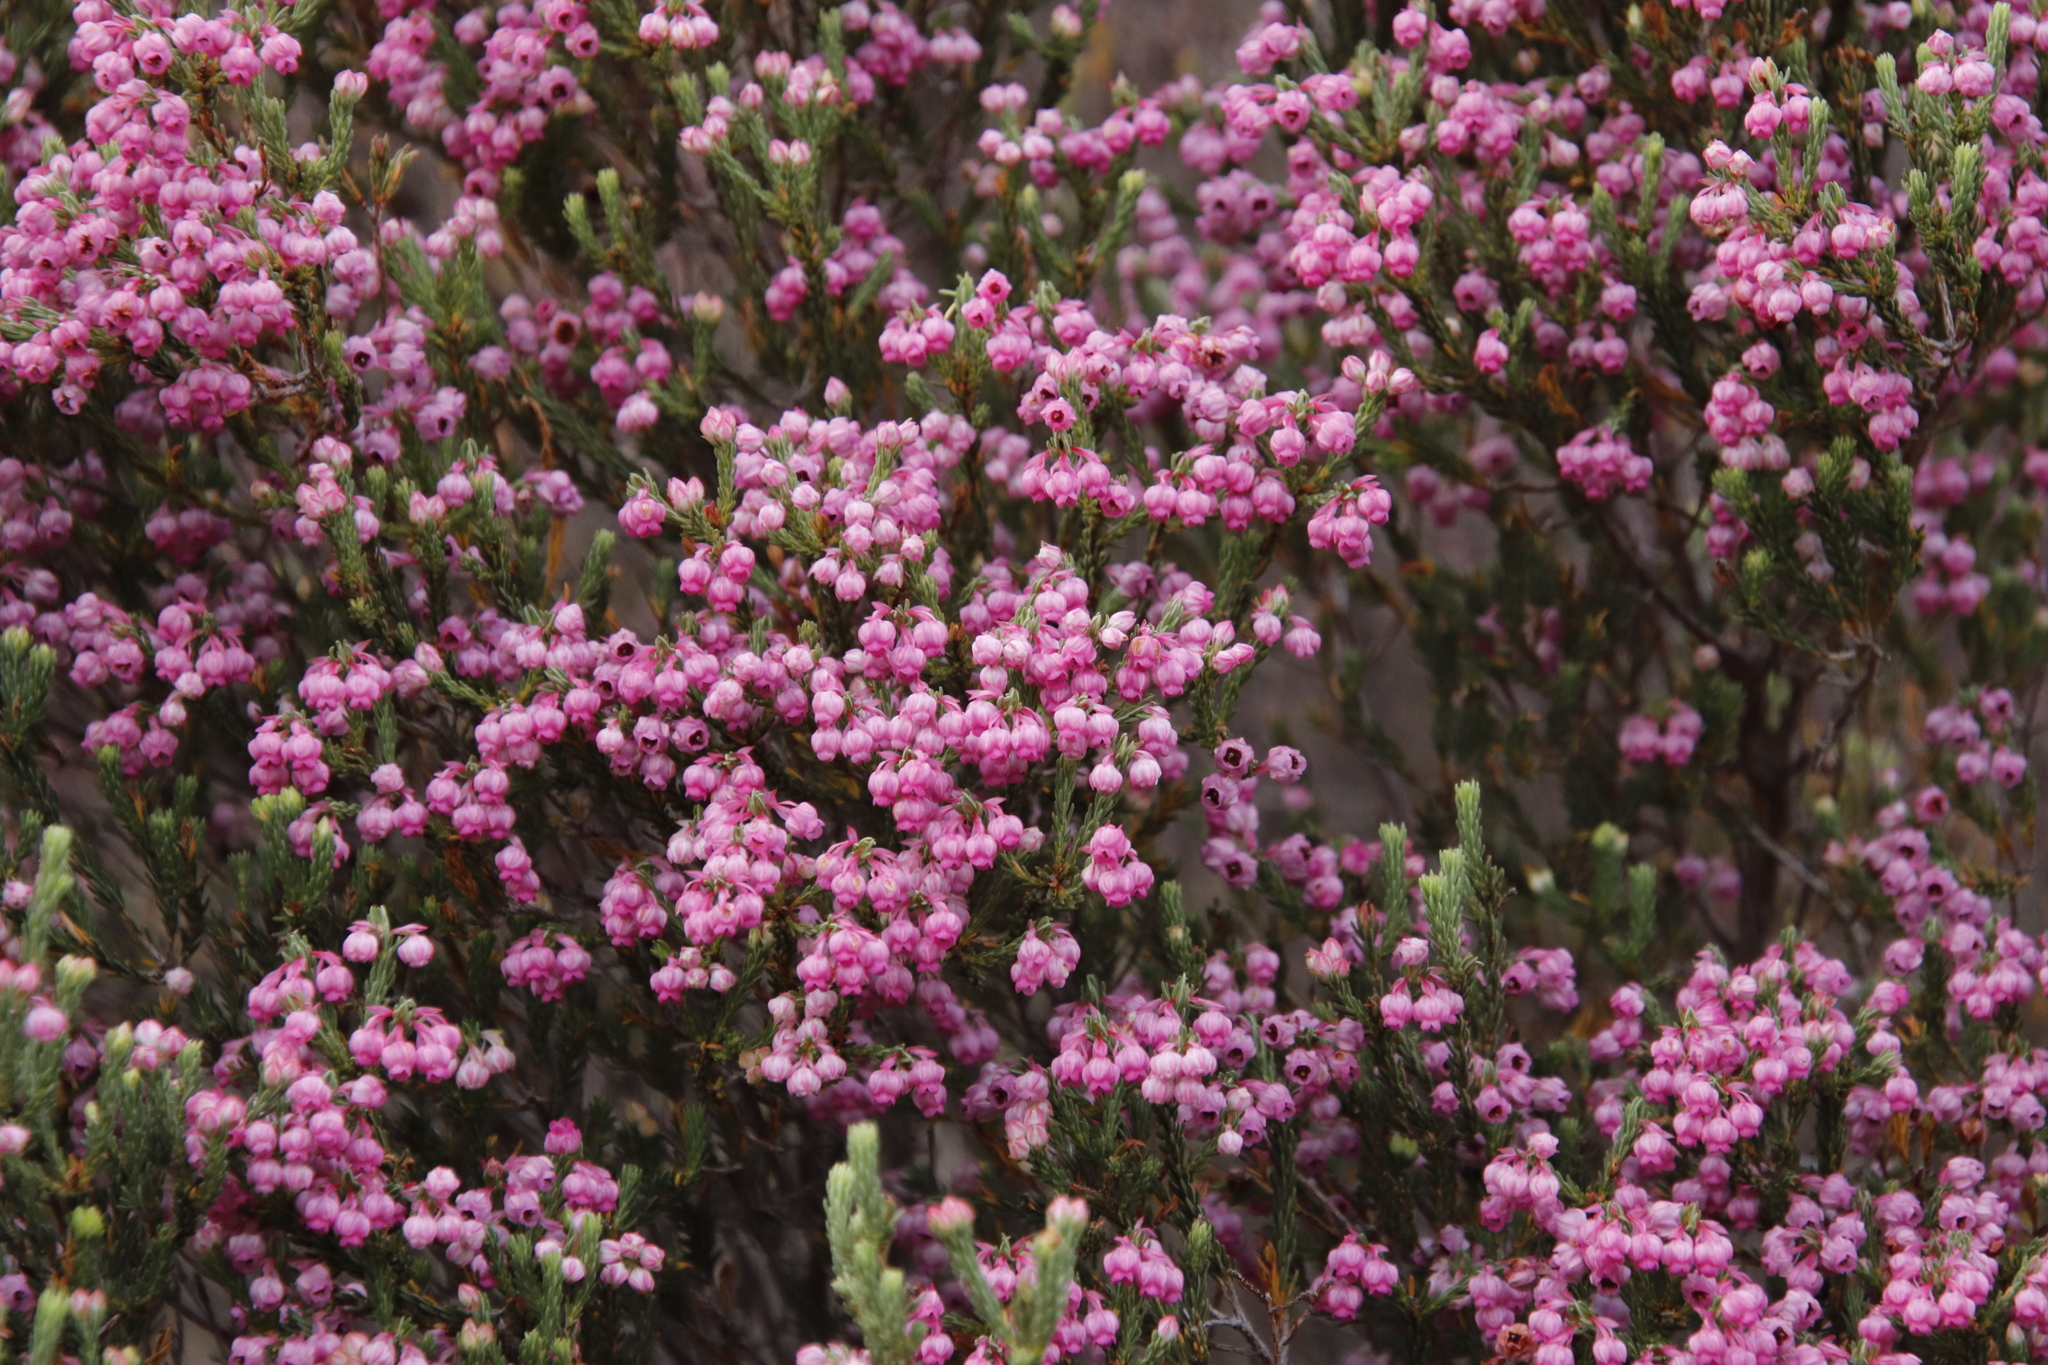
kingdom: Plantae
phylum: Tracheophyta
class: Magnoliopsida
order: Ericales
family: Ericaceae
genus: Erica
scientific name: Erica baccans
